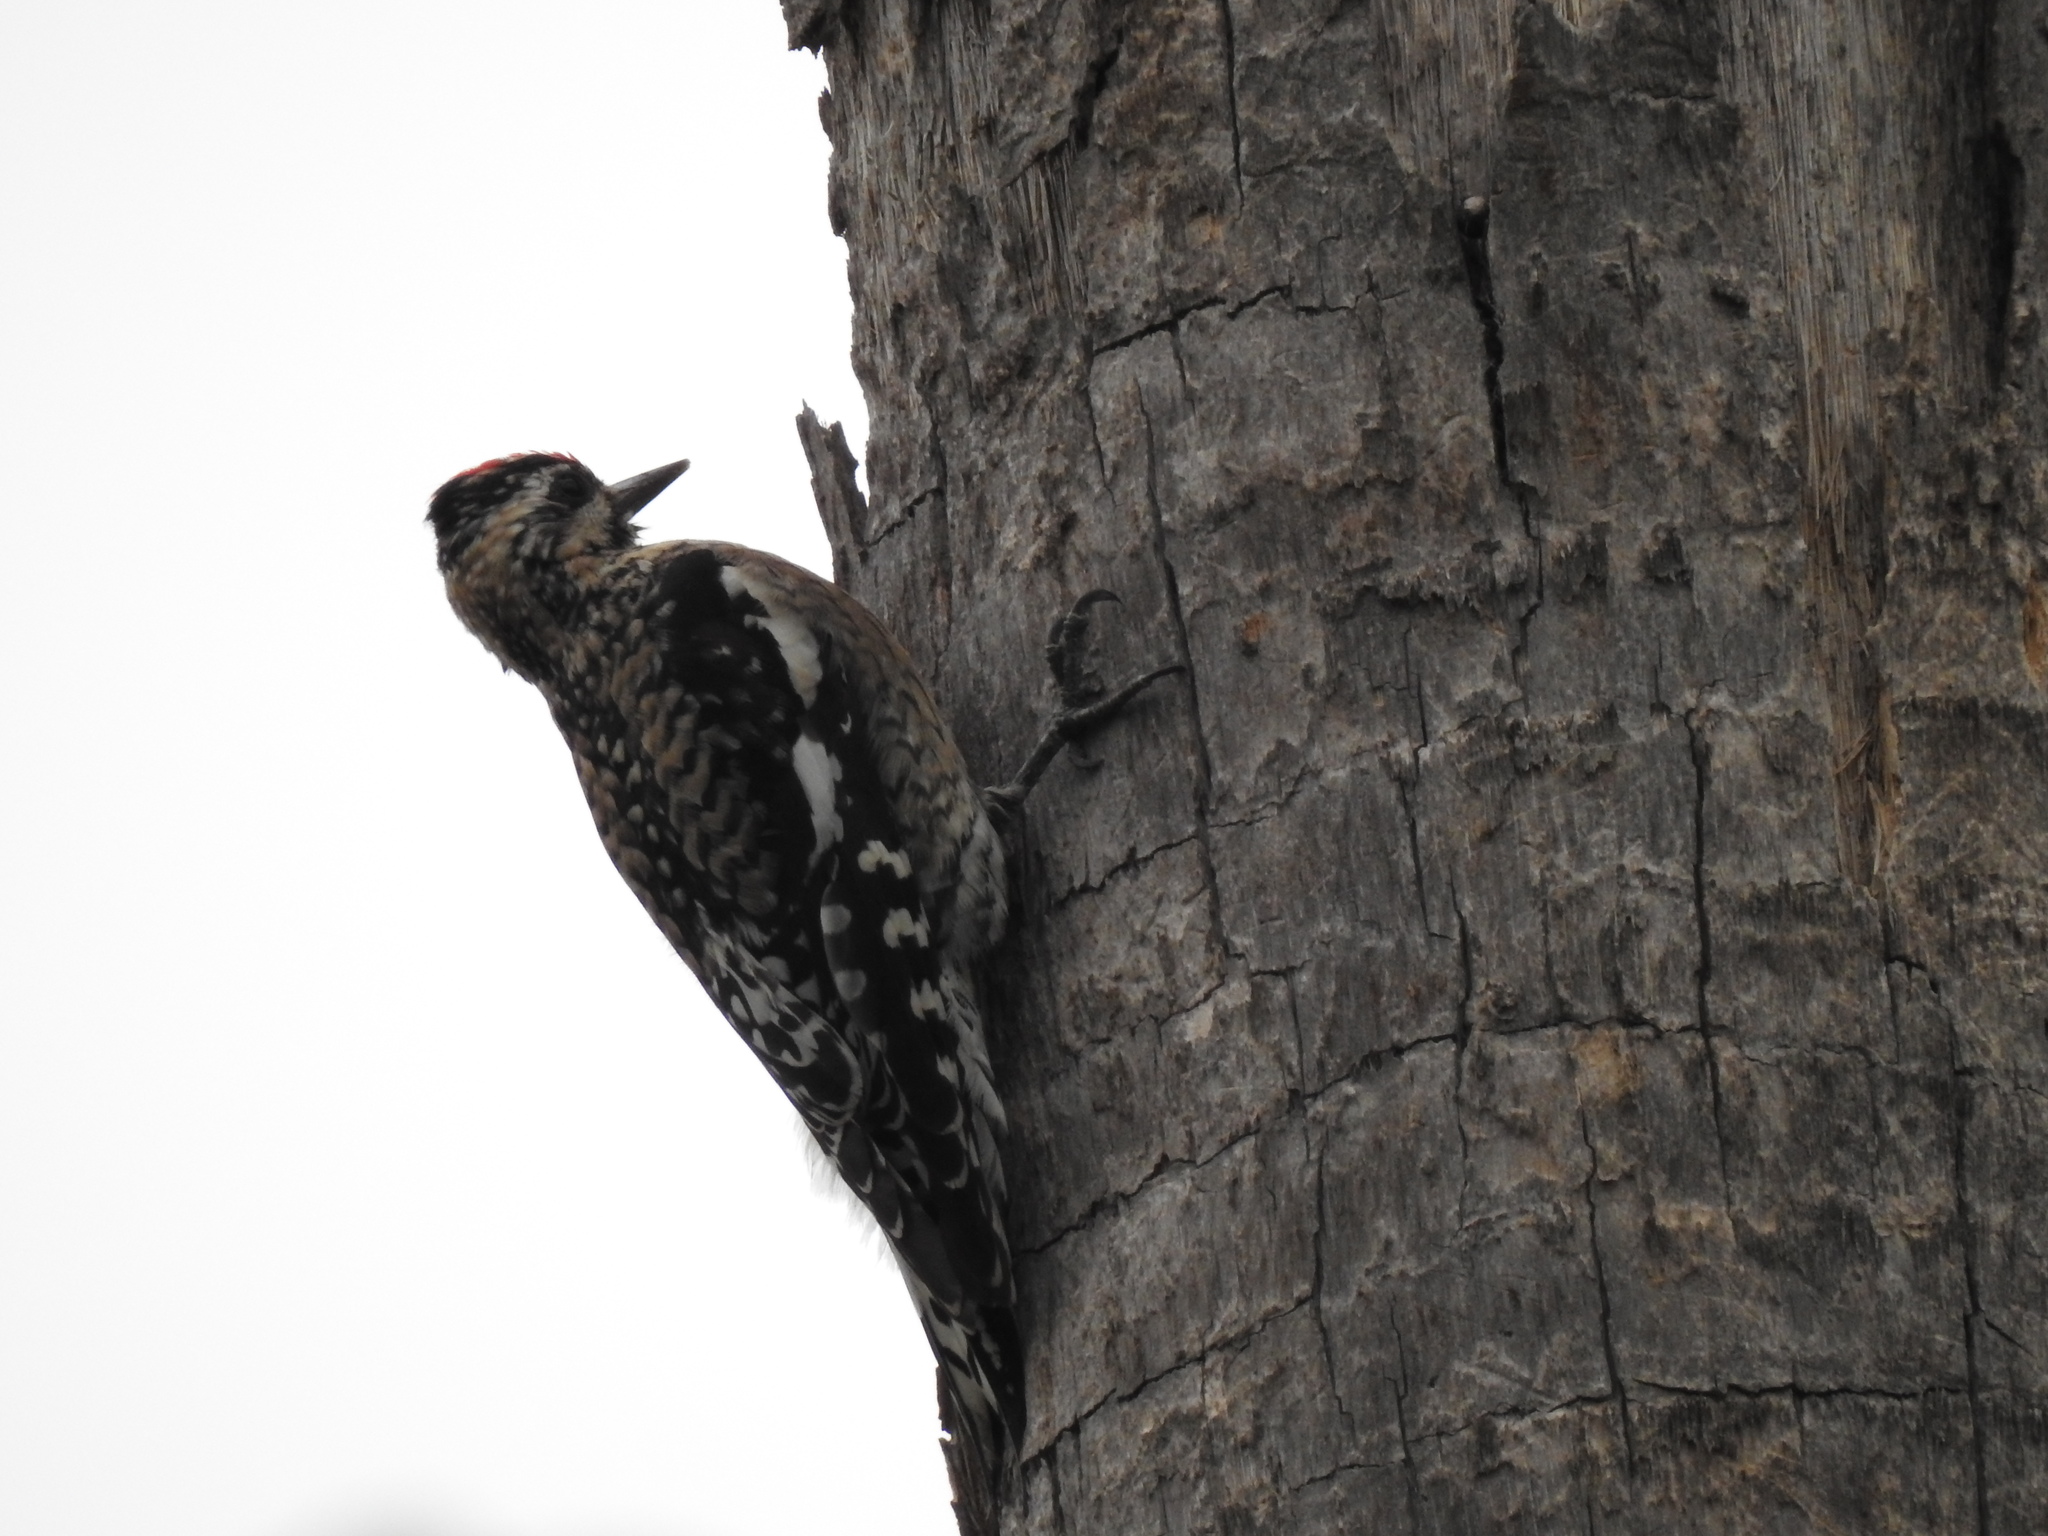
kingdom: Animalia
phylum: Chordata
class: Aves
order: Piciformes
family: Picidae
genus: Sphyrapicus
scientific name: Sphyrapicus varius
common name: Yellow-bellied sapsucker
